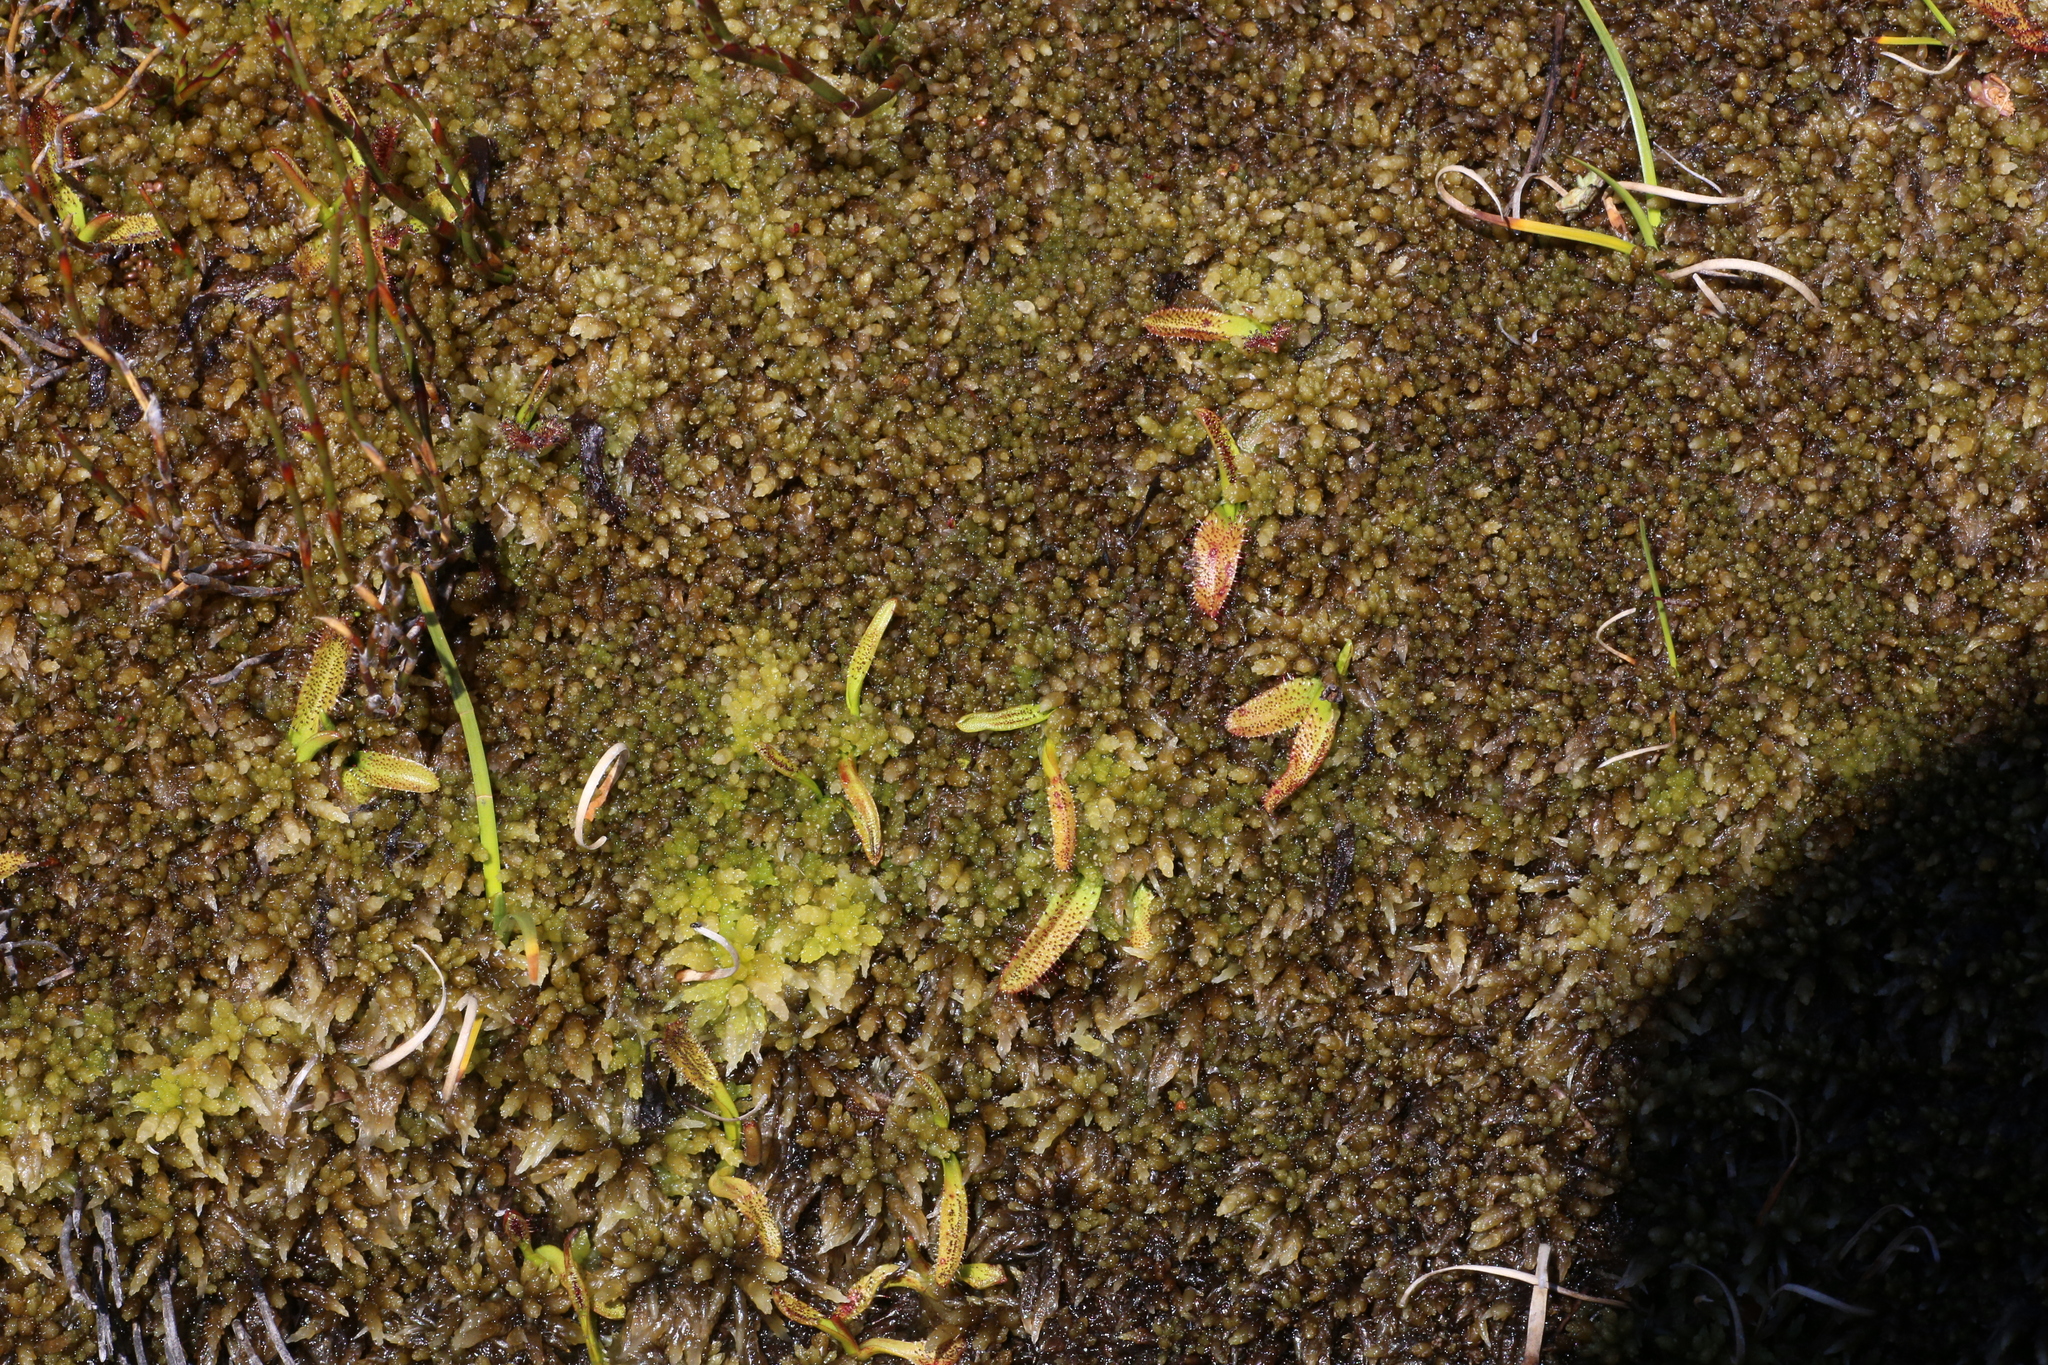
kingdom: Plantae
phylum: Tracheophyta
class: Magnoliopsida
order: Caryophyllales
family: Droseraceae
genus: Drosera
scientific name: Drosera arcturi
